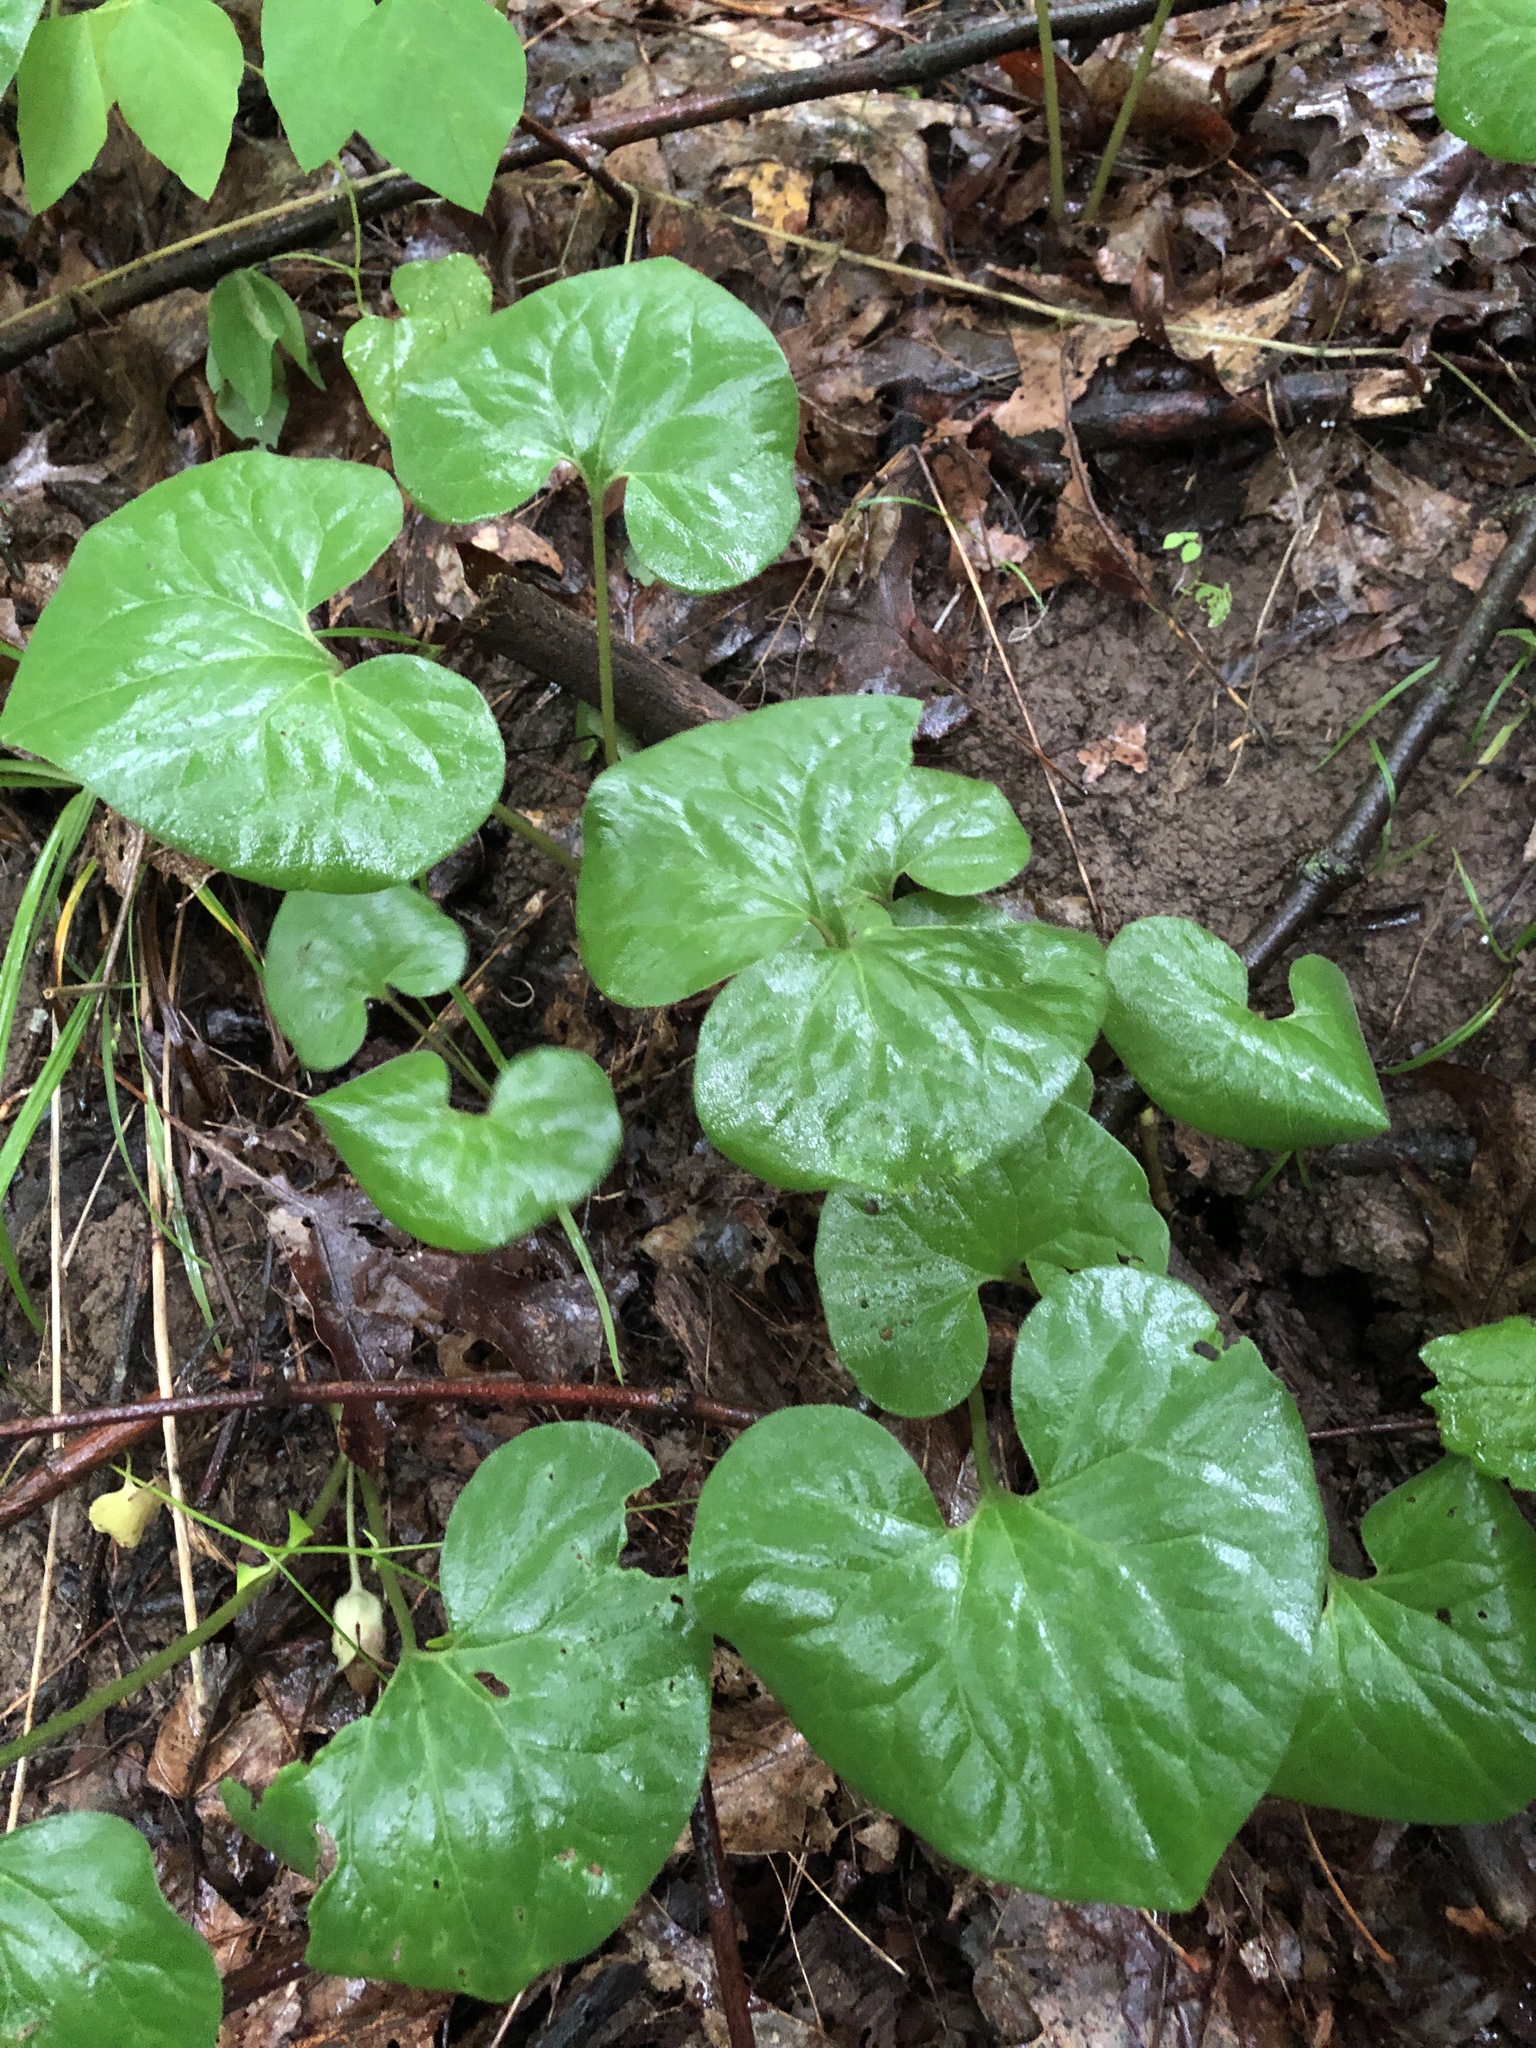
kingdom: Plantae
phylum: Tracheophyta
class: Magnoliopsida
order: Piperales
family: Aristolochiaceae
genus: Asarum
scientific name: Asarum canadense
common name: Wild ginger
